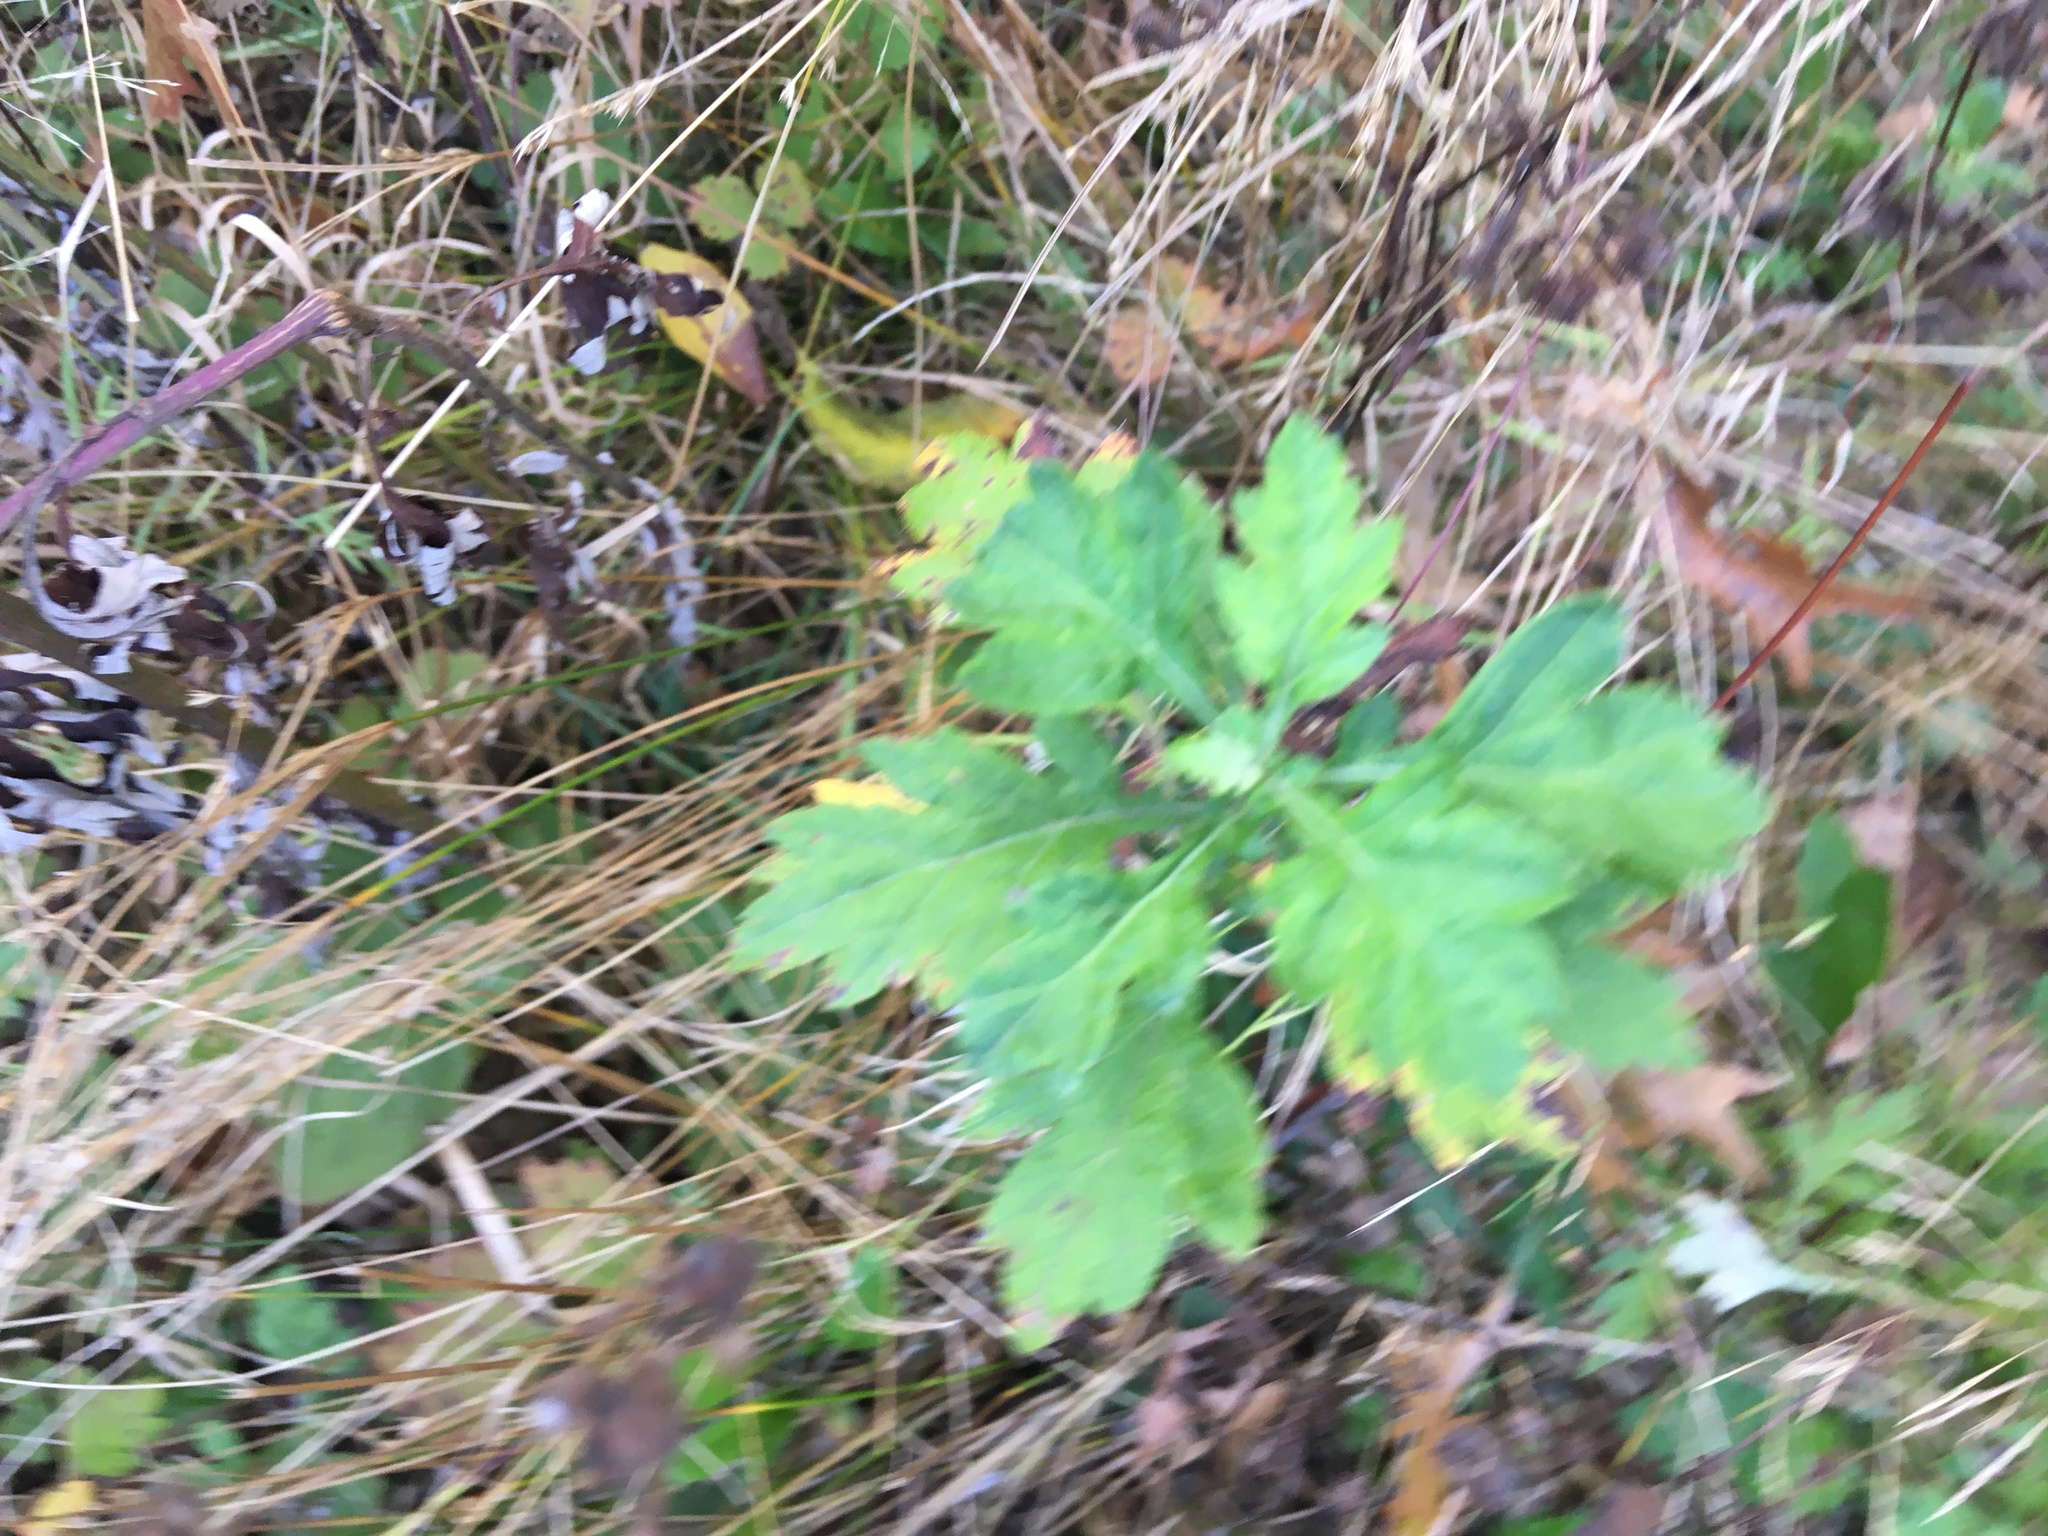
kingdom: Plantae
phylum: Tracheophyta
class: Magnoliopsida
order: Asterales
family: Asteraceae
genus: Artemisia
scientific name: Artemisia vulgaris
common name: Mugwort
